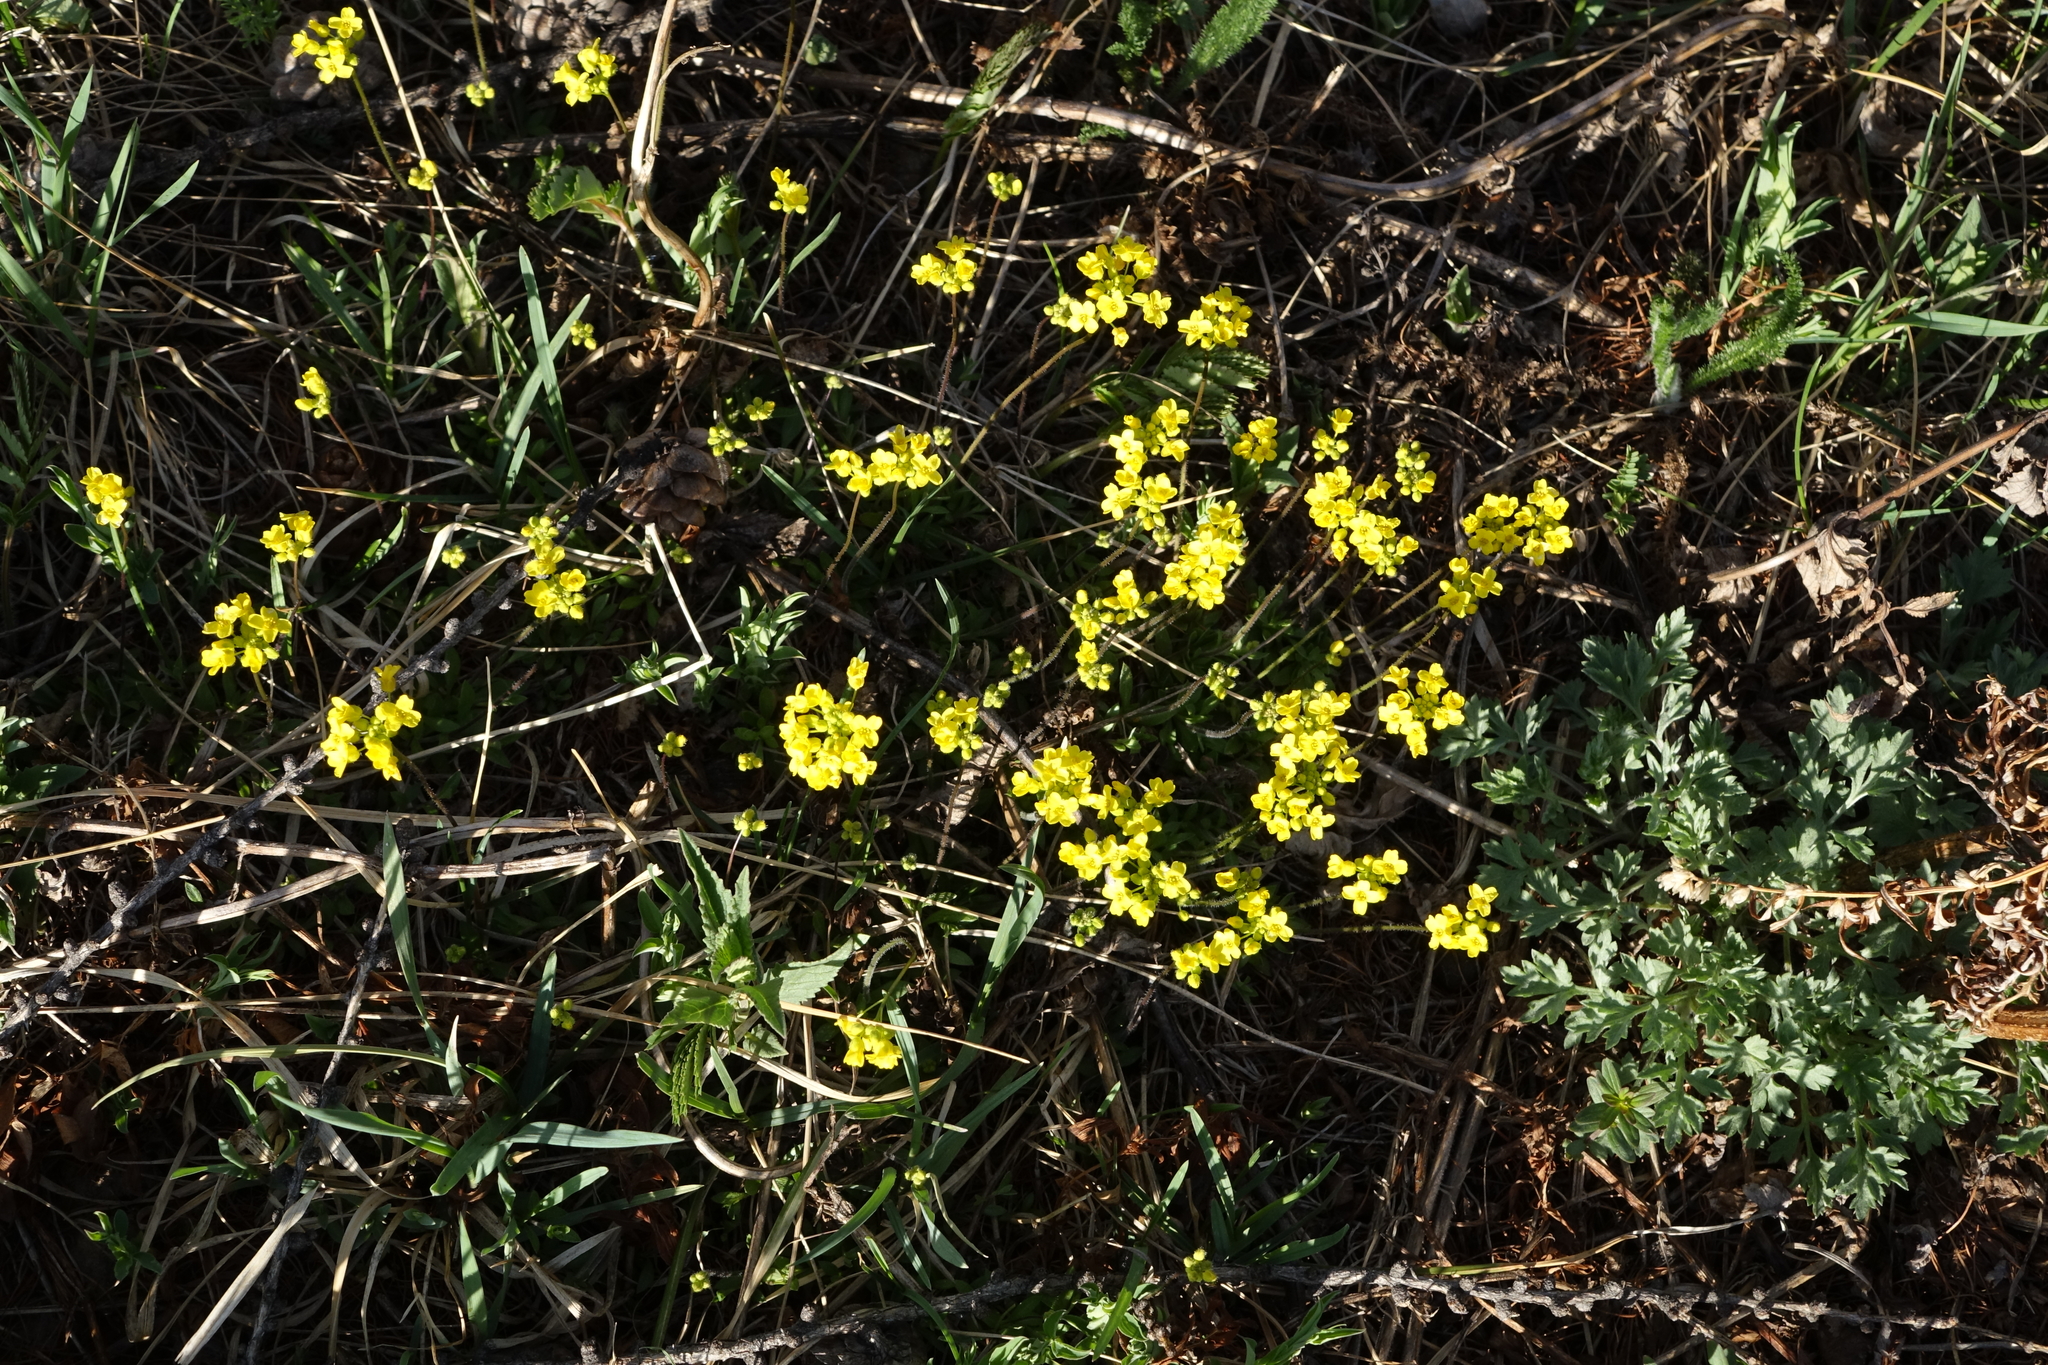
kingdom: Plantae
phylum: Tracheophyta
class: Magnoliopsida
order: Brassicales
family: Brassicaceae
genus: Draba
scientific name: Draba sibirica
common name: Siberian draba
